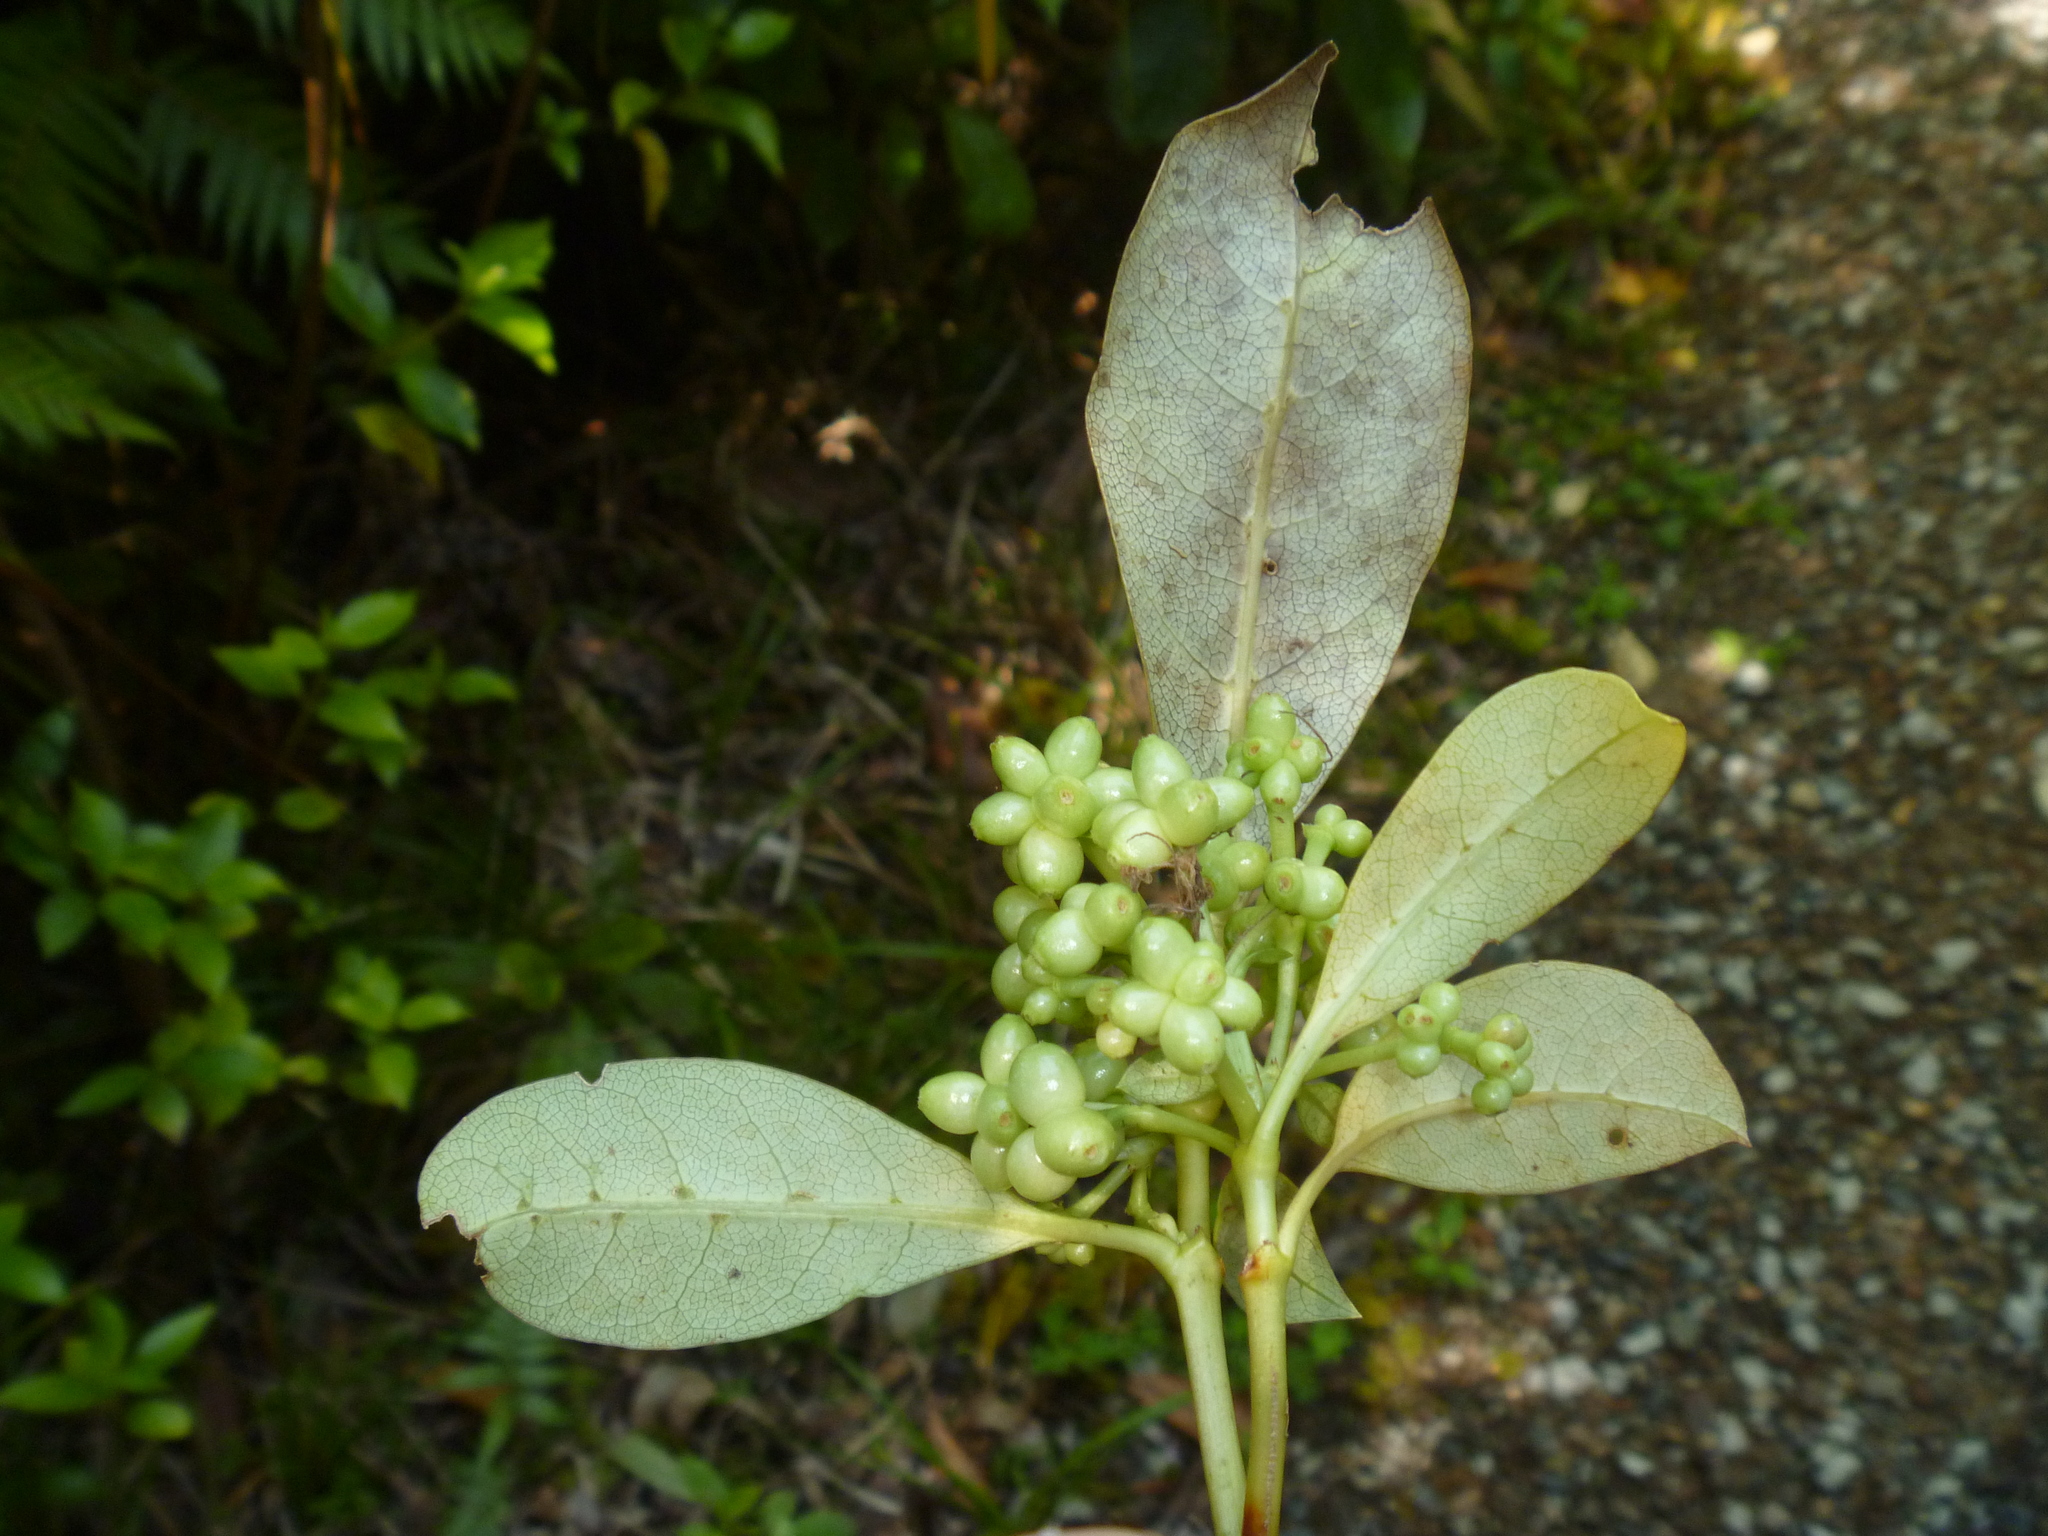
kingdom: Plantae
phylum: Tracheophyta
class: Magnoliopsida
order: Gentianales
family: Rubiaceae
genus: Coprosma
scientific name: Coprosma lucida
